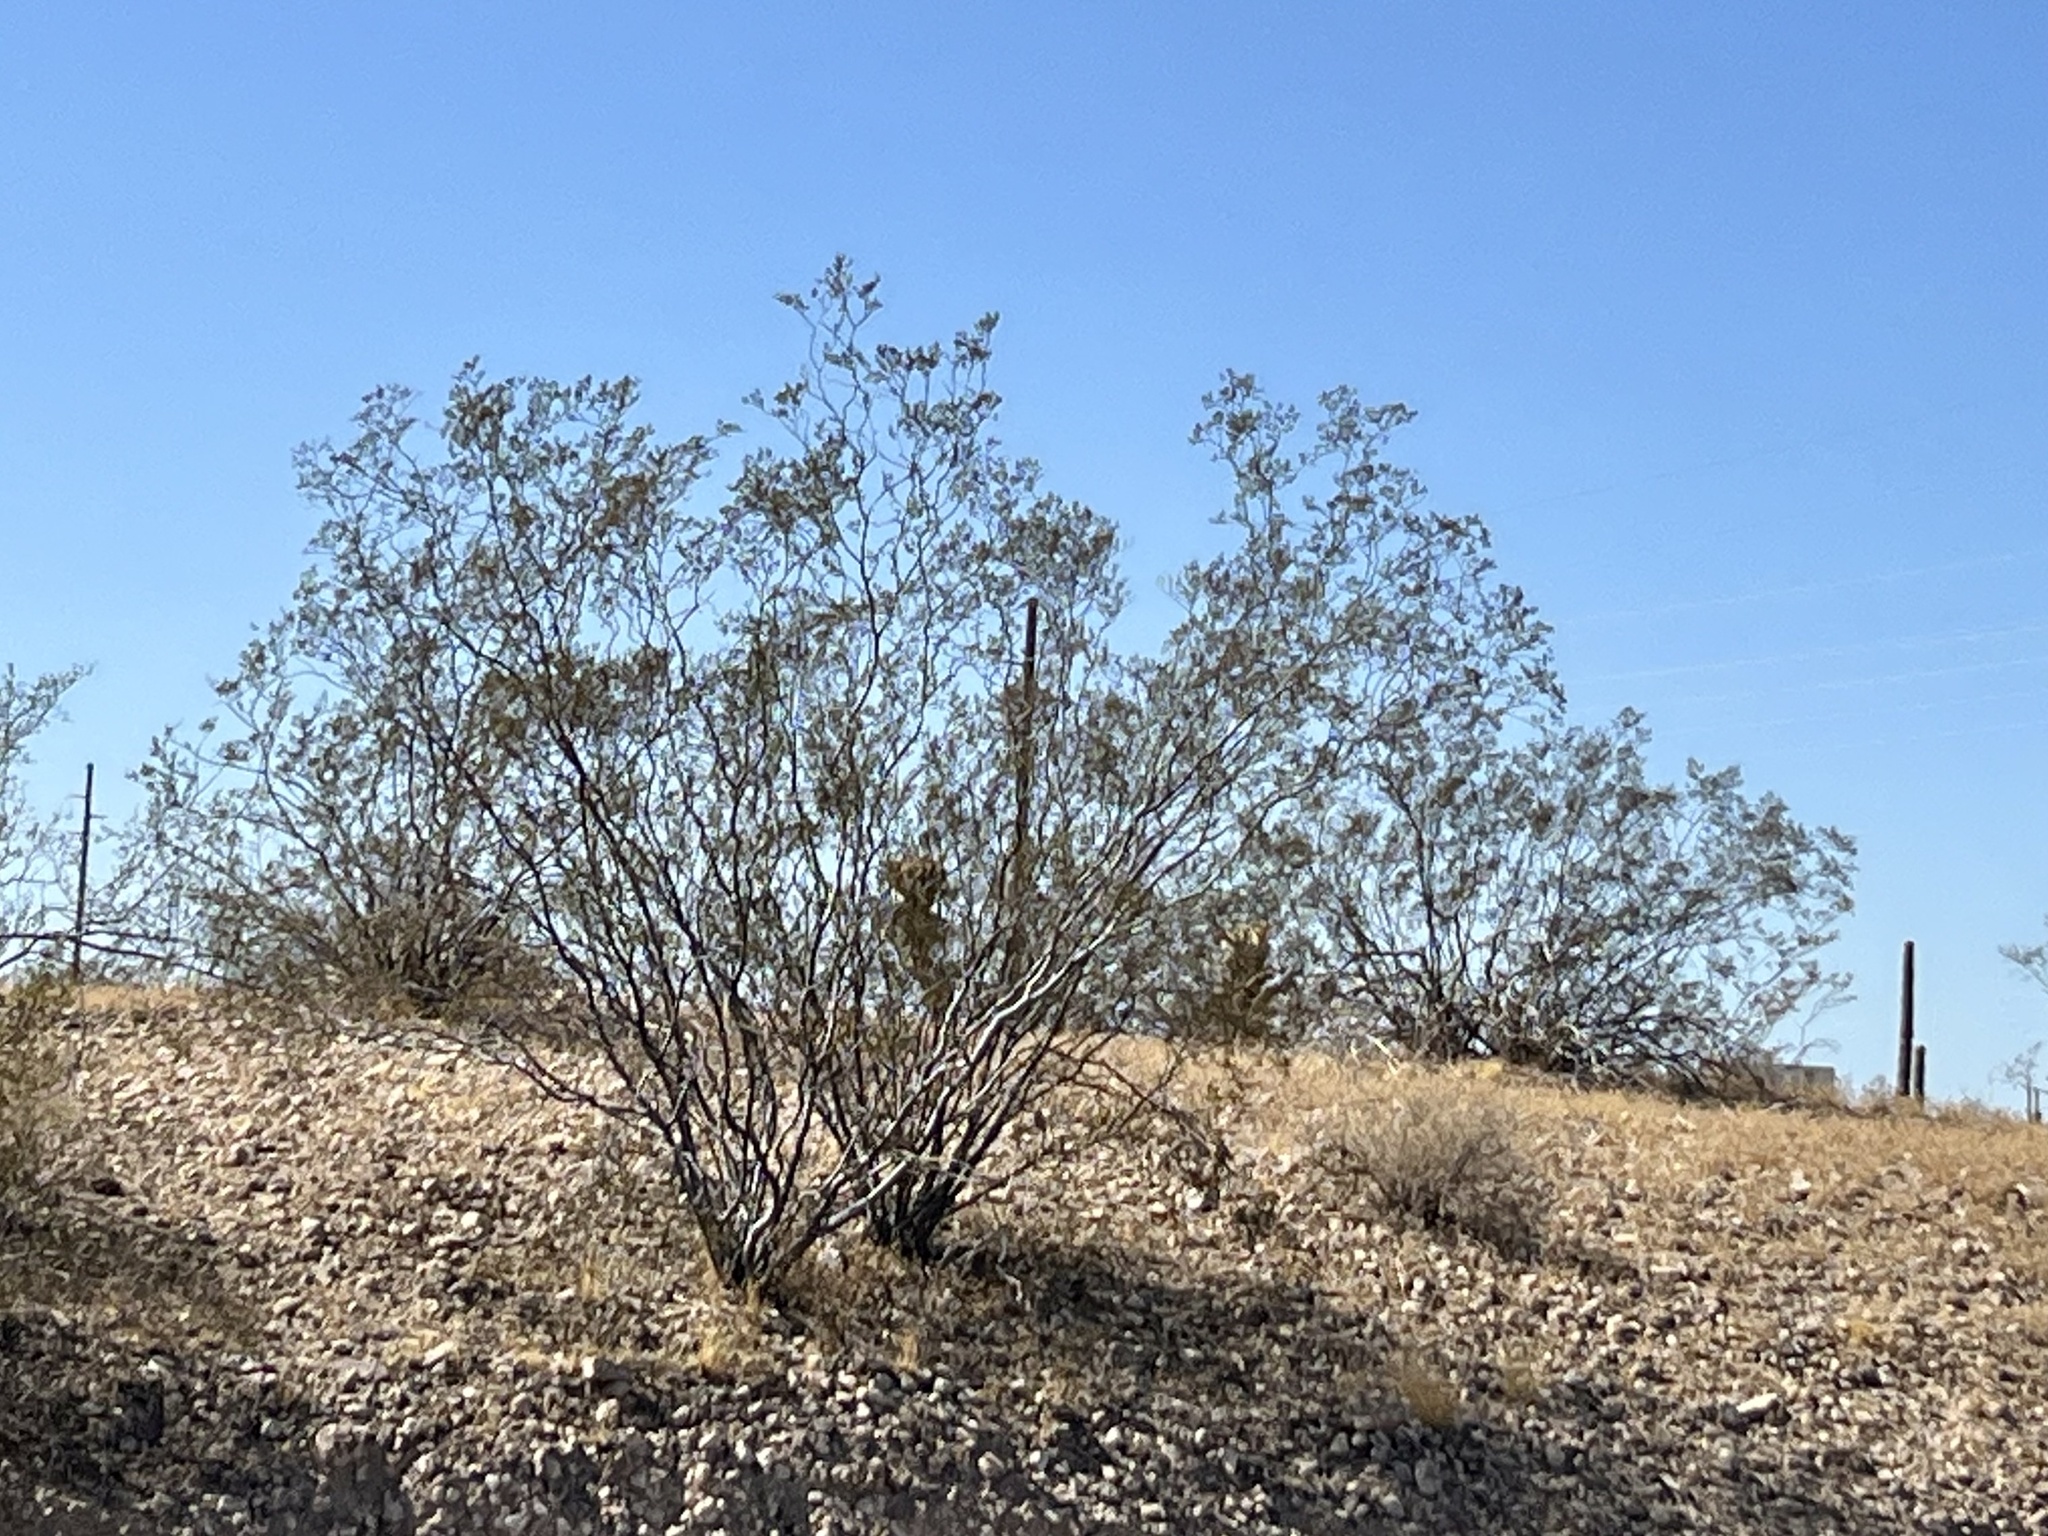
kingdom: Plantae
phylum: Tracheophyta
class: Magnoliopsida
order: Zygophyllales
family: Zygophyllaceae
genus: Larrea
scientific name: Larrea tridentata
